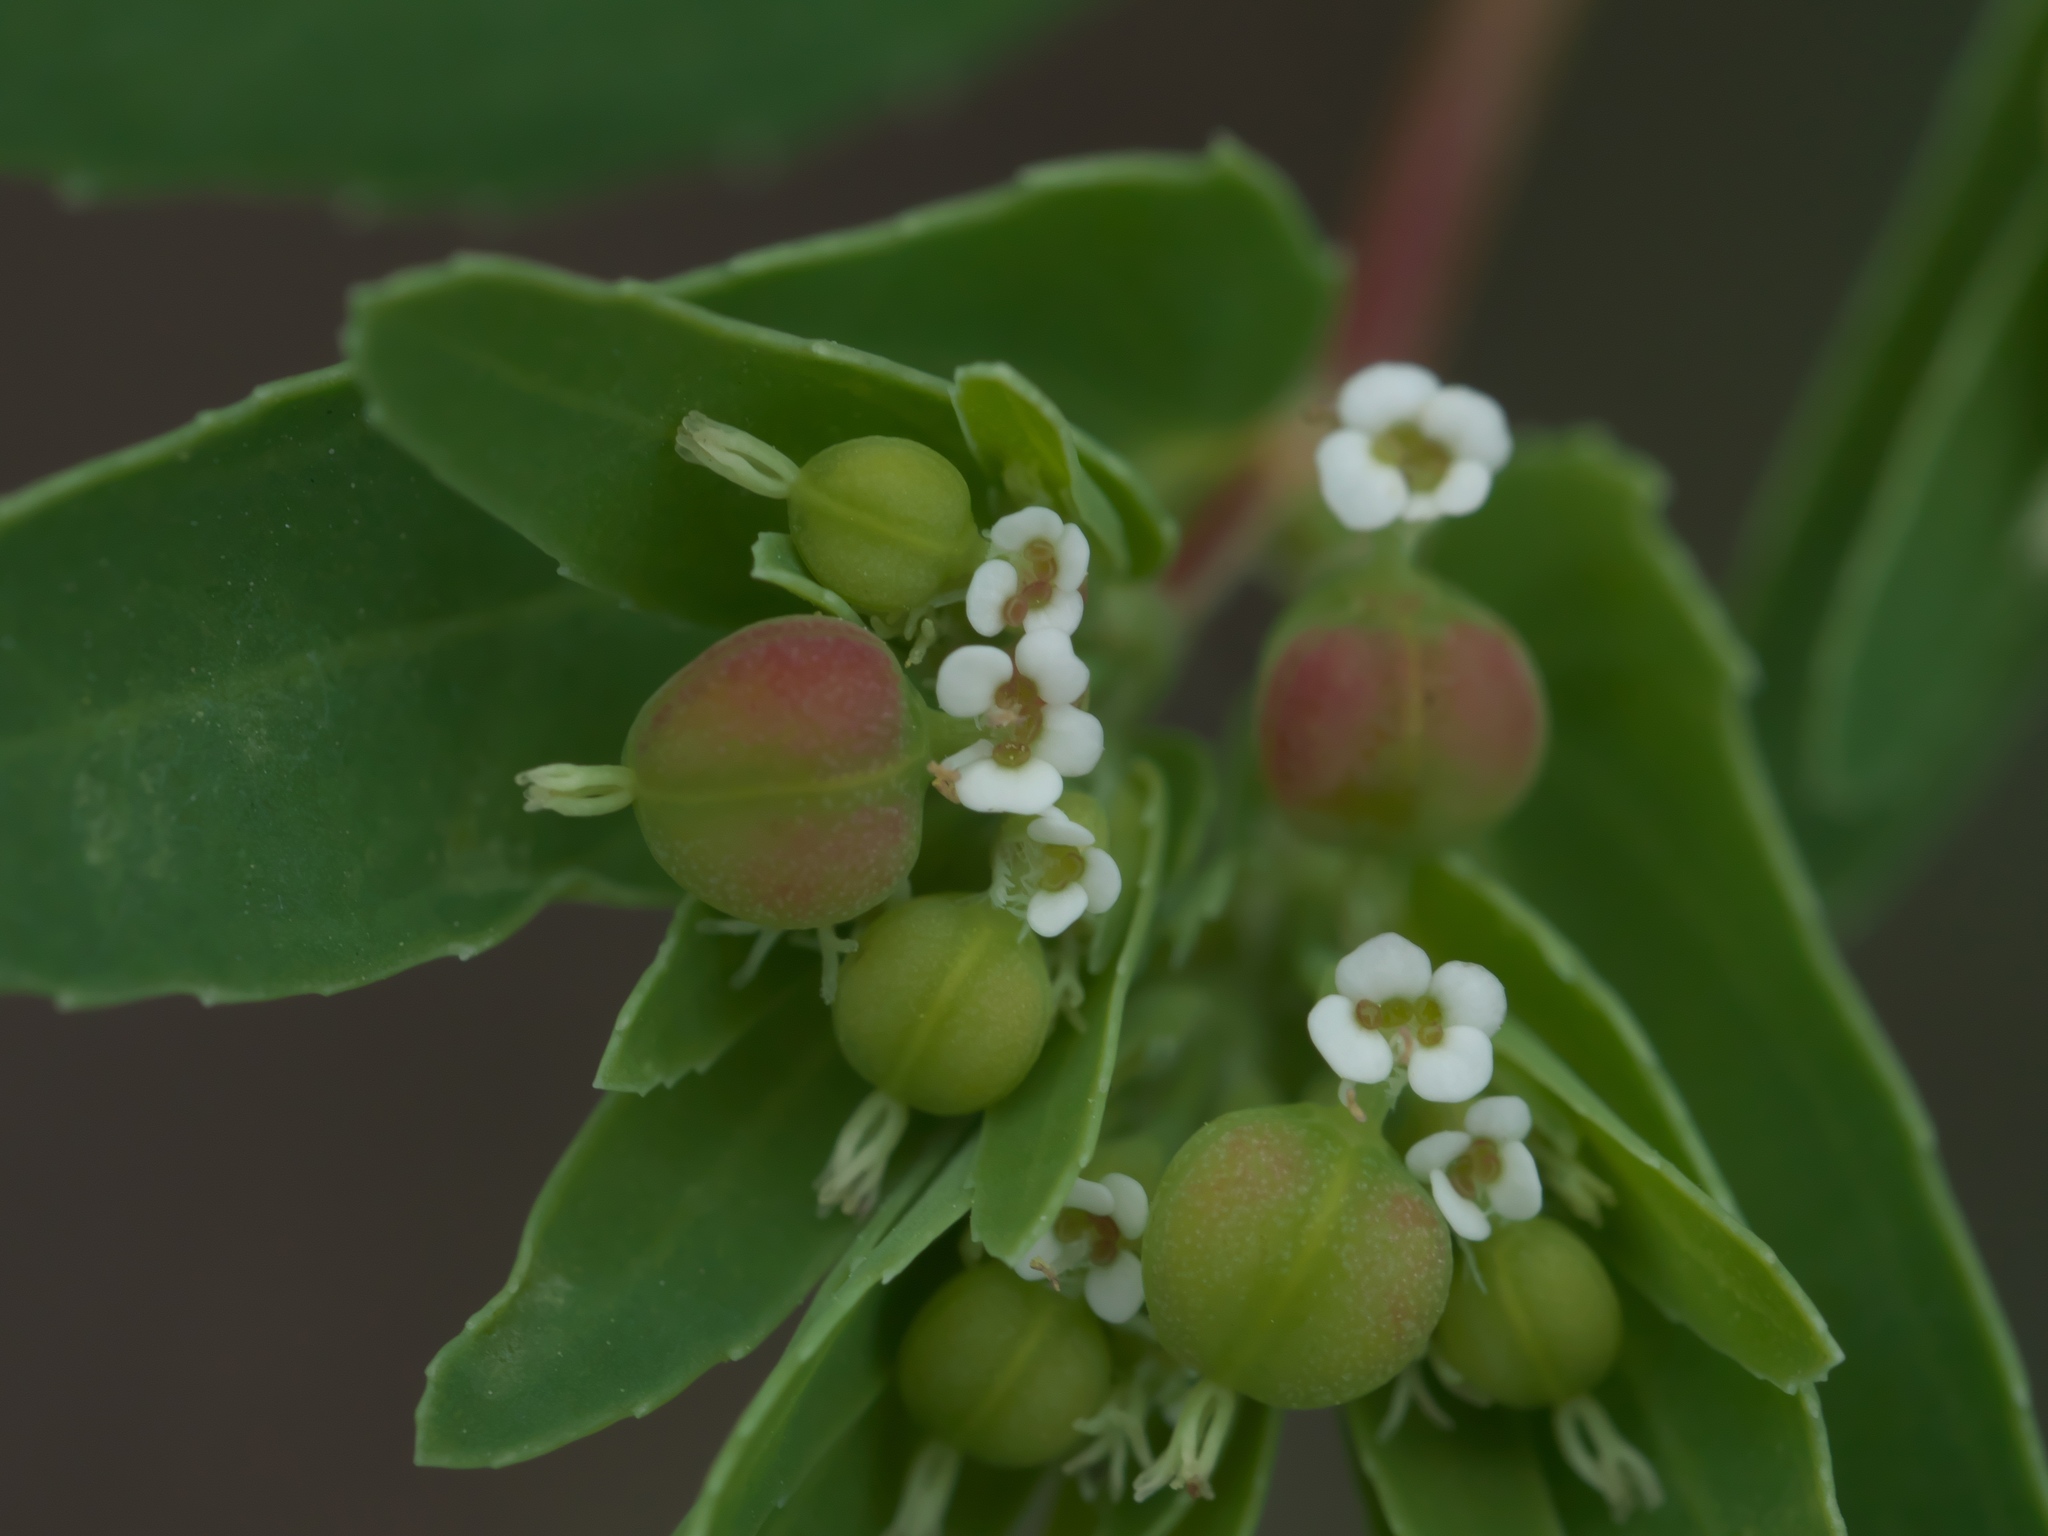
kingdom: Plantae
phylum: Tracheophyta
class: Magnoliopsida
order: Malpighiales
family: Euphorbiaceae
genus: Euphorbia
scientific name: Euphorbia nutans
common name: Eyebane
